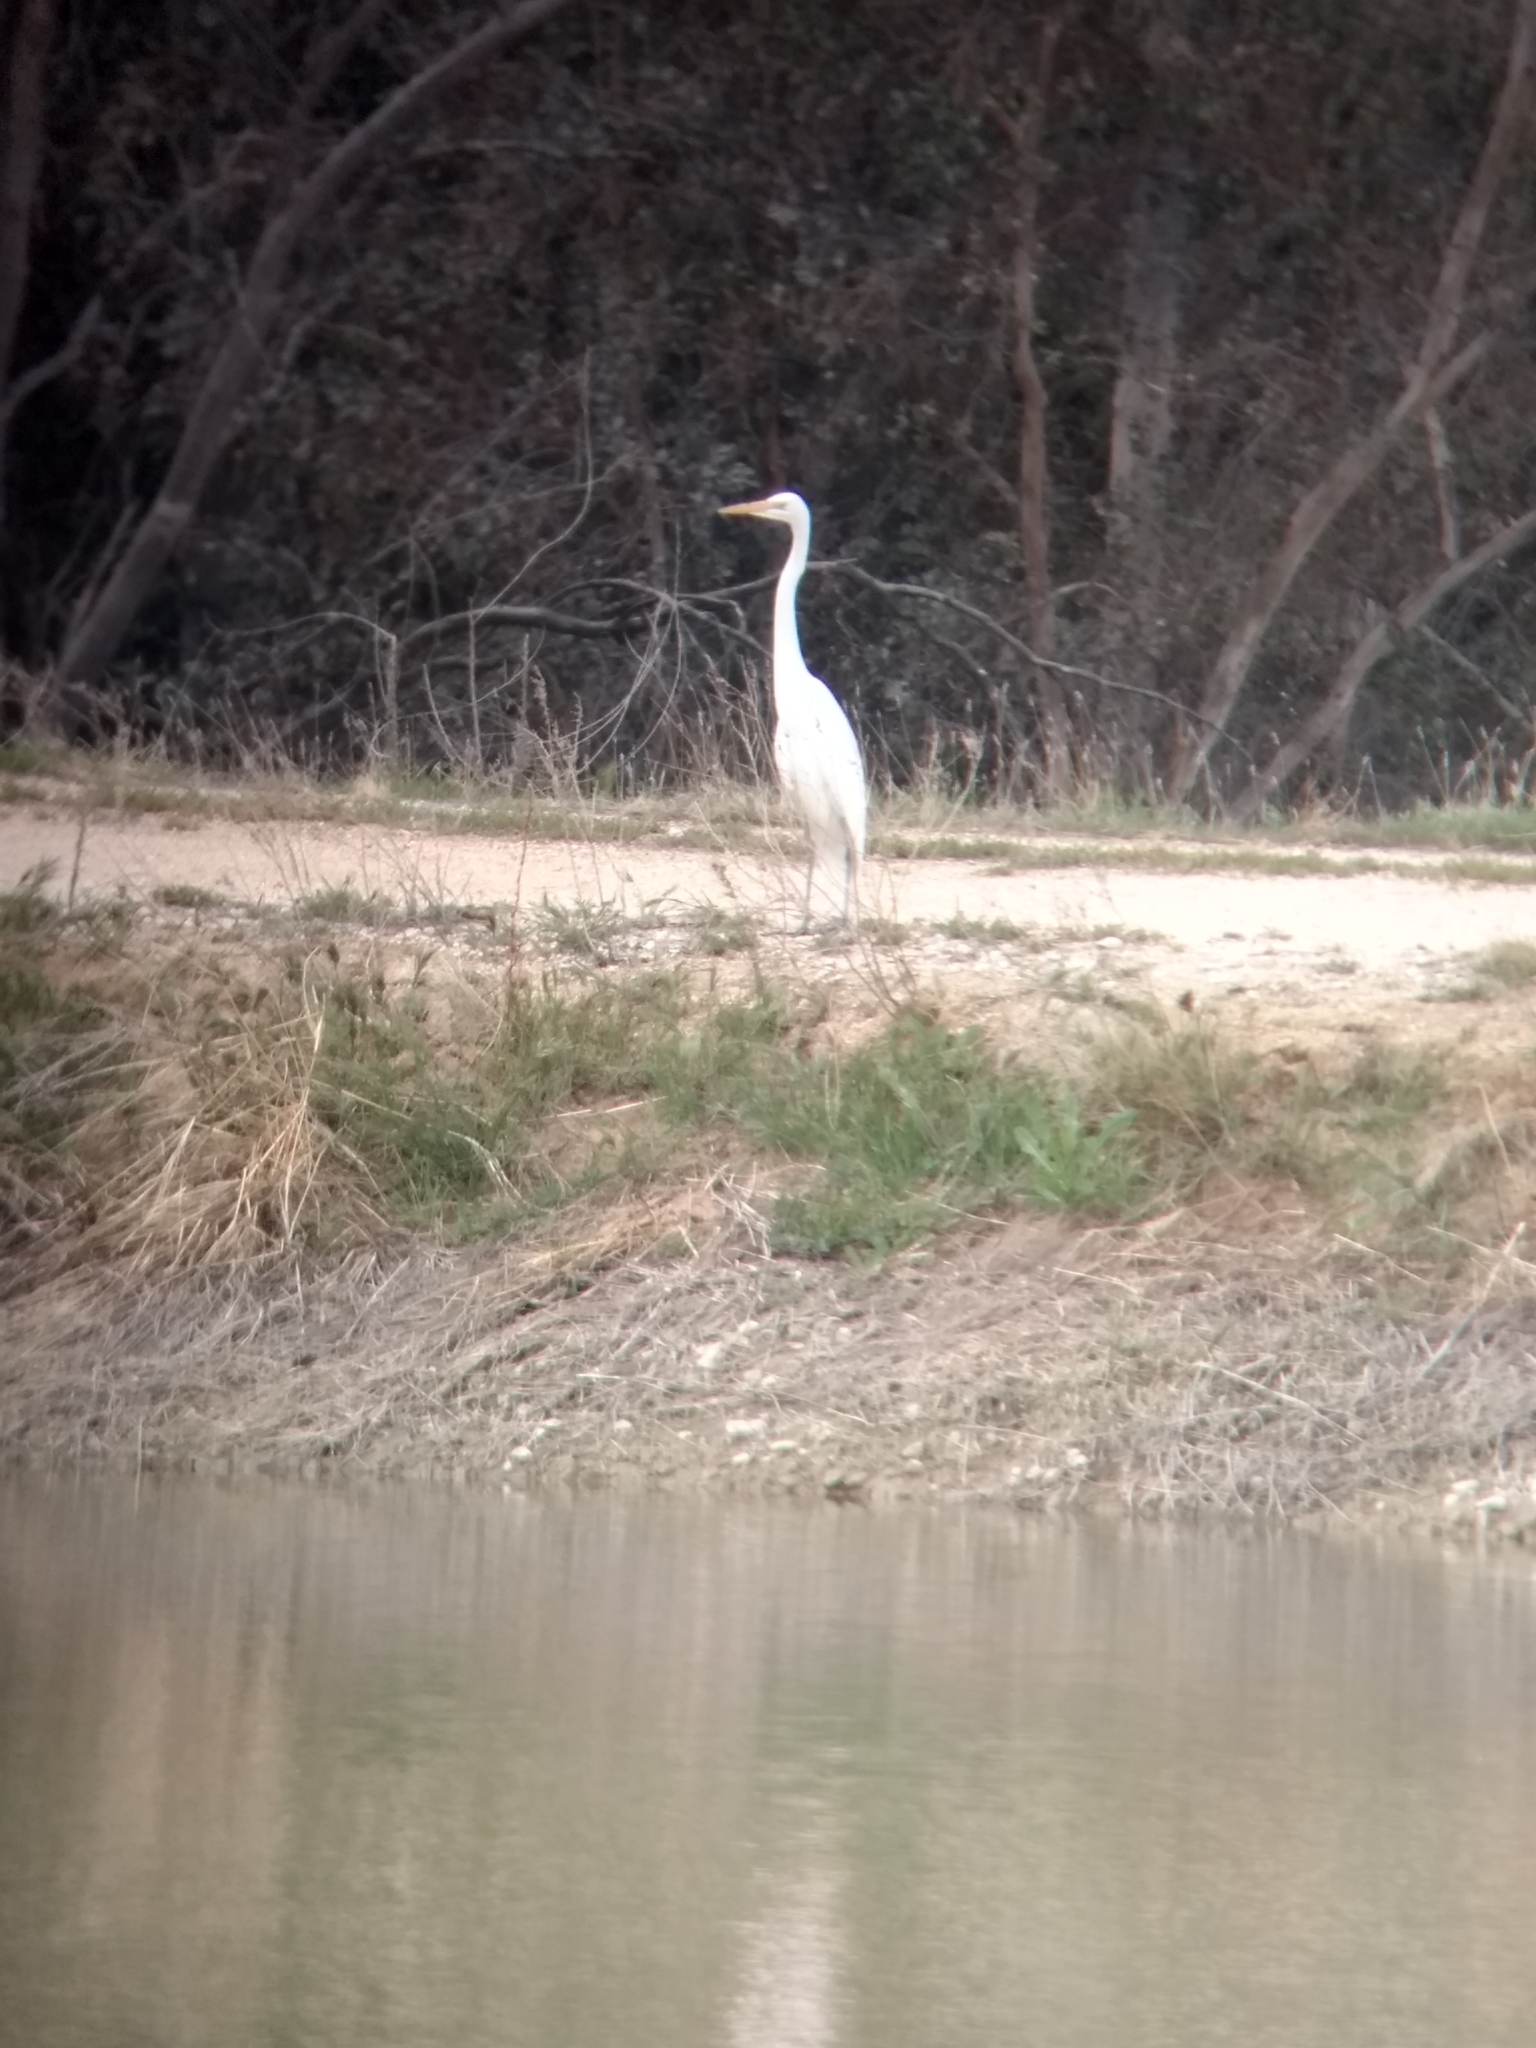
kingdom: Animalia
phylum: Chordata
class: Aves
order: Pelecaniformes
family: Ardeidae
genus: Ardea
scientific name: Ardea alba
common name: Great egret
